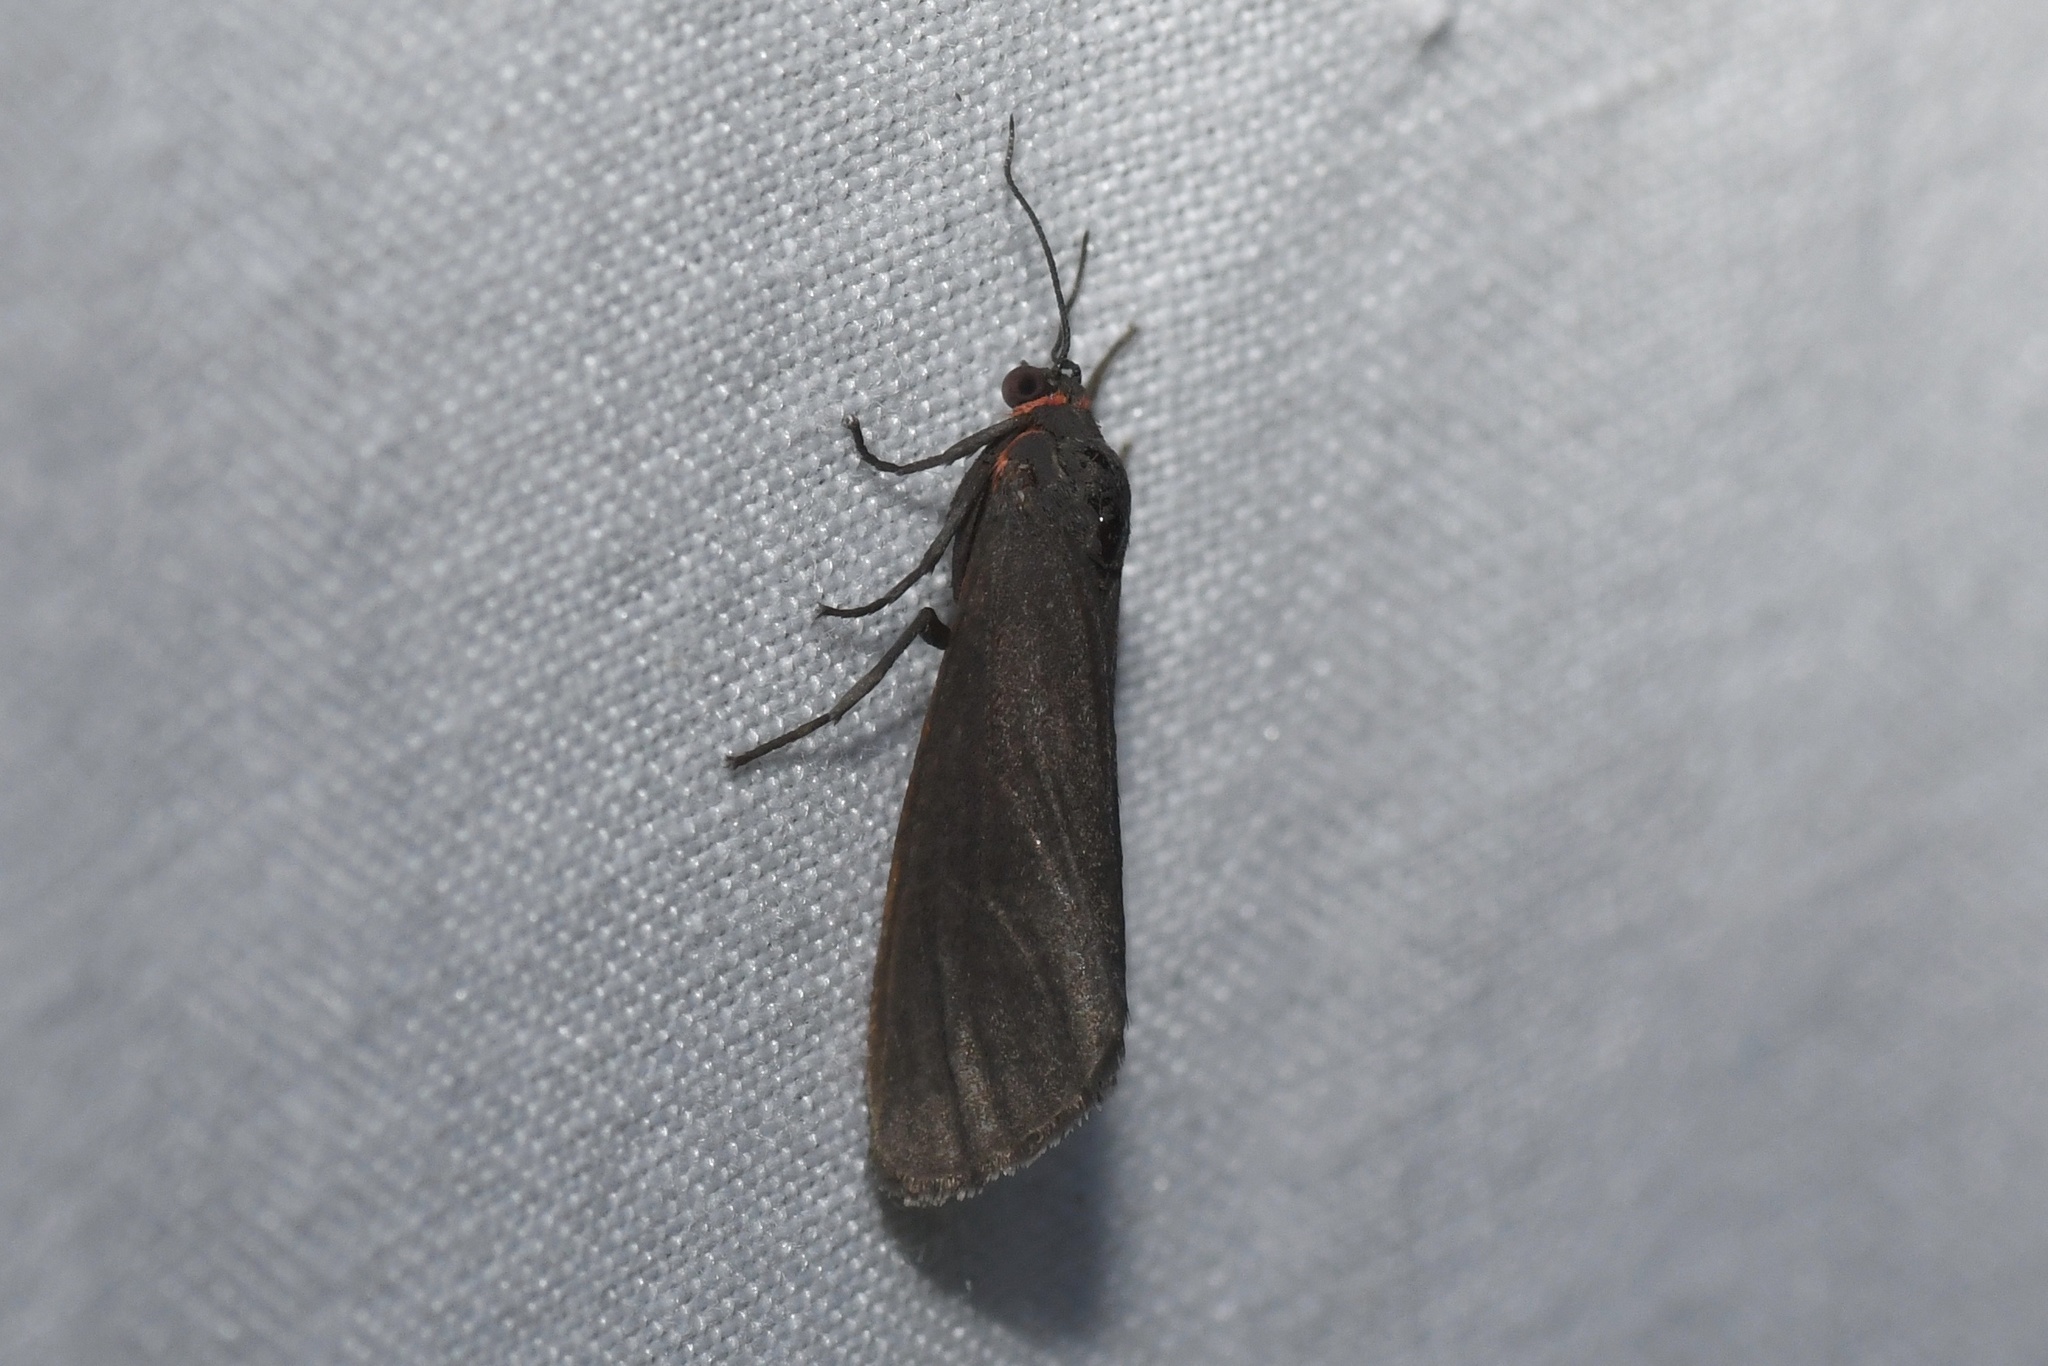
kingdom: Animalia
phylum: Arthropoda
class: Insecta
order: Lepidoptera
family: Erebidae
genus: Virbia
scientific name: Virbia laeta
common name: Joyful holomelina moth
